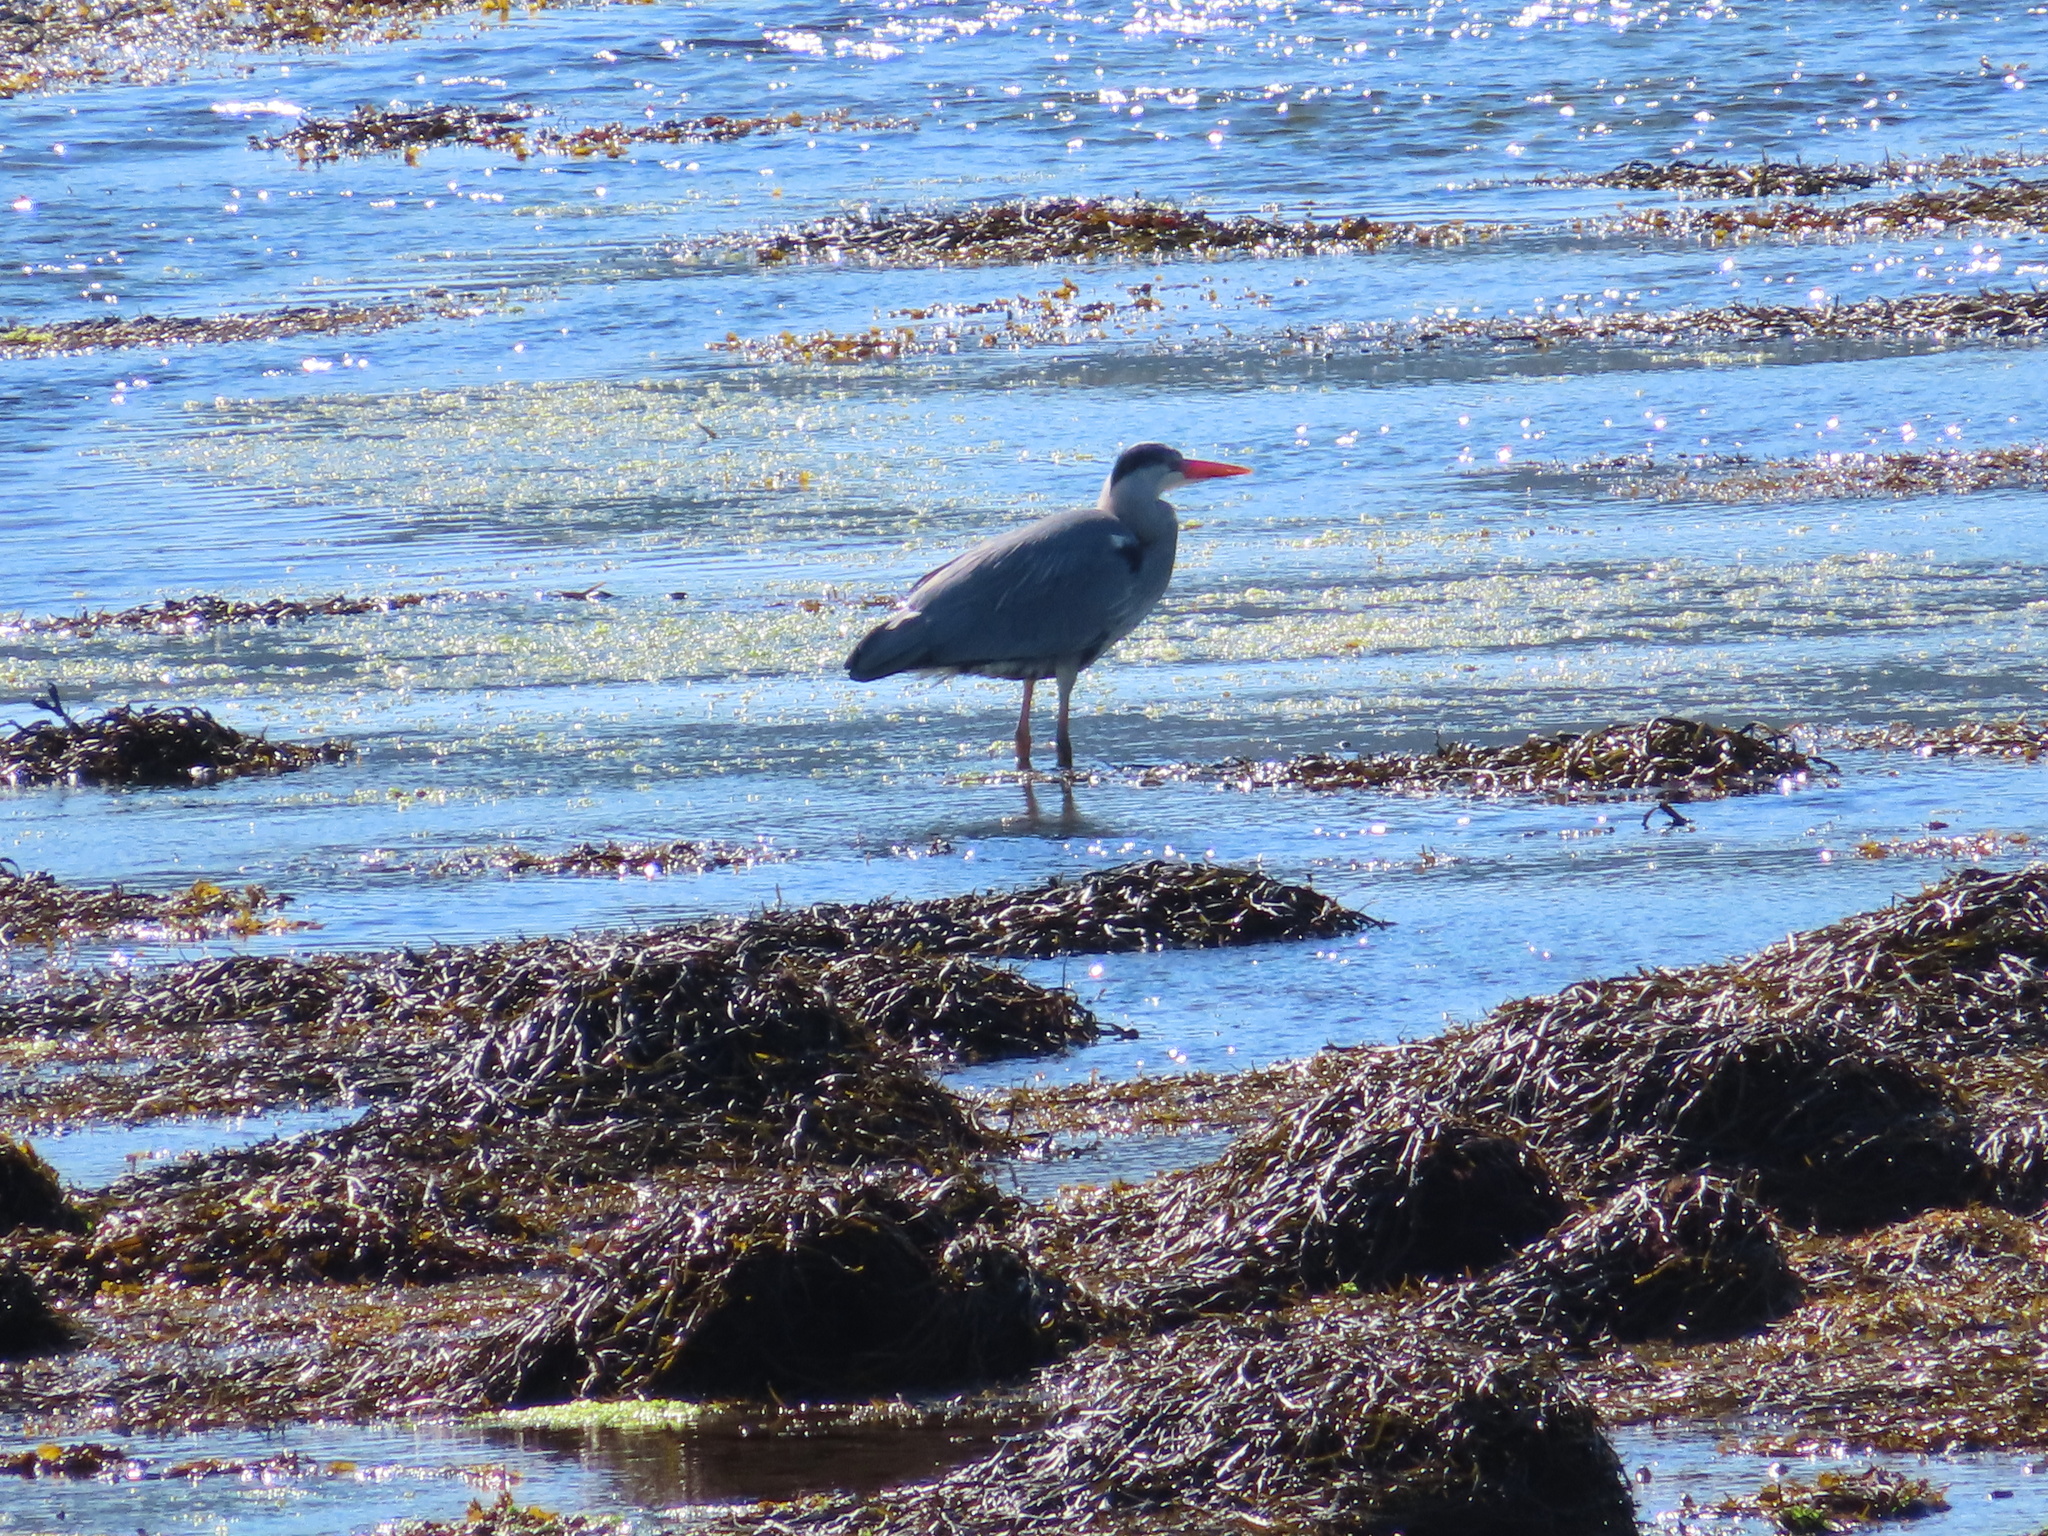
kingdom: Animalia
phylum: Chordata
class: Aves
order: Pelecaniformes
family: Ardeidae
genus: Ardea
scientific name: Ardea cinerea
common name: Grey heron
